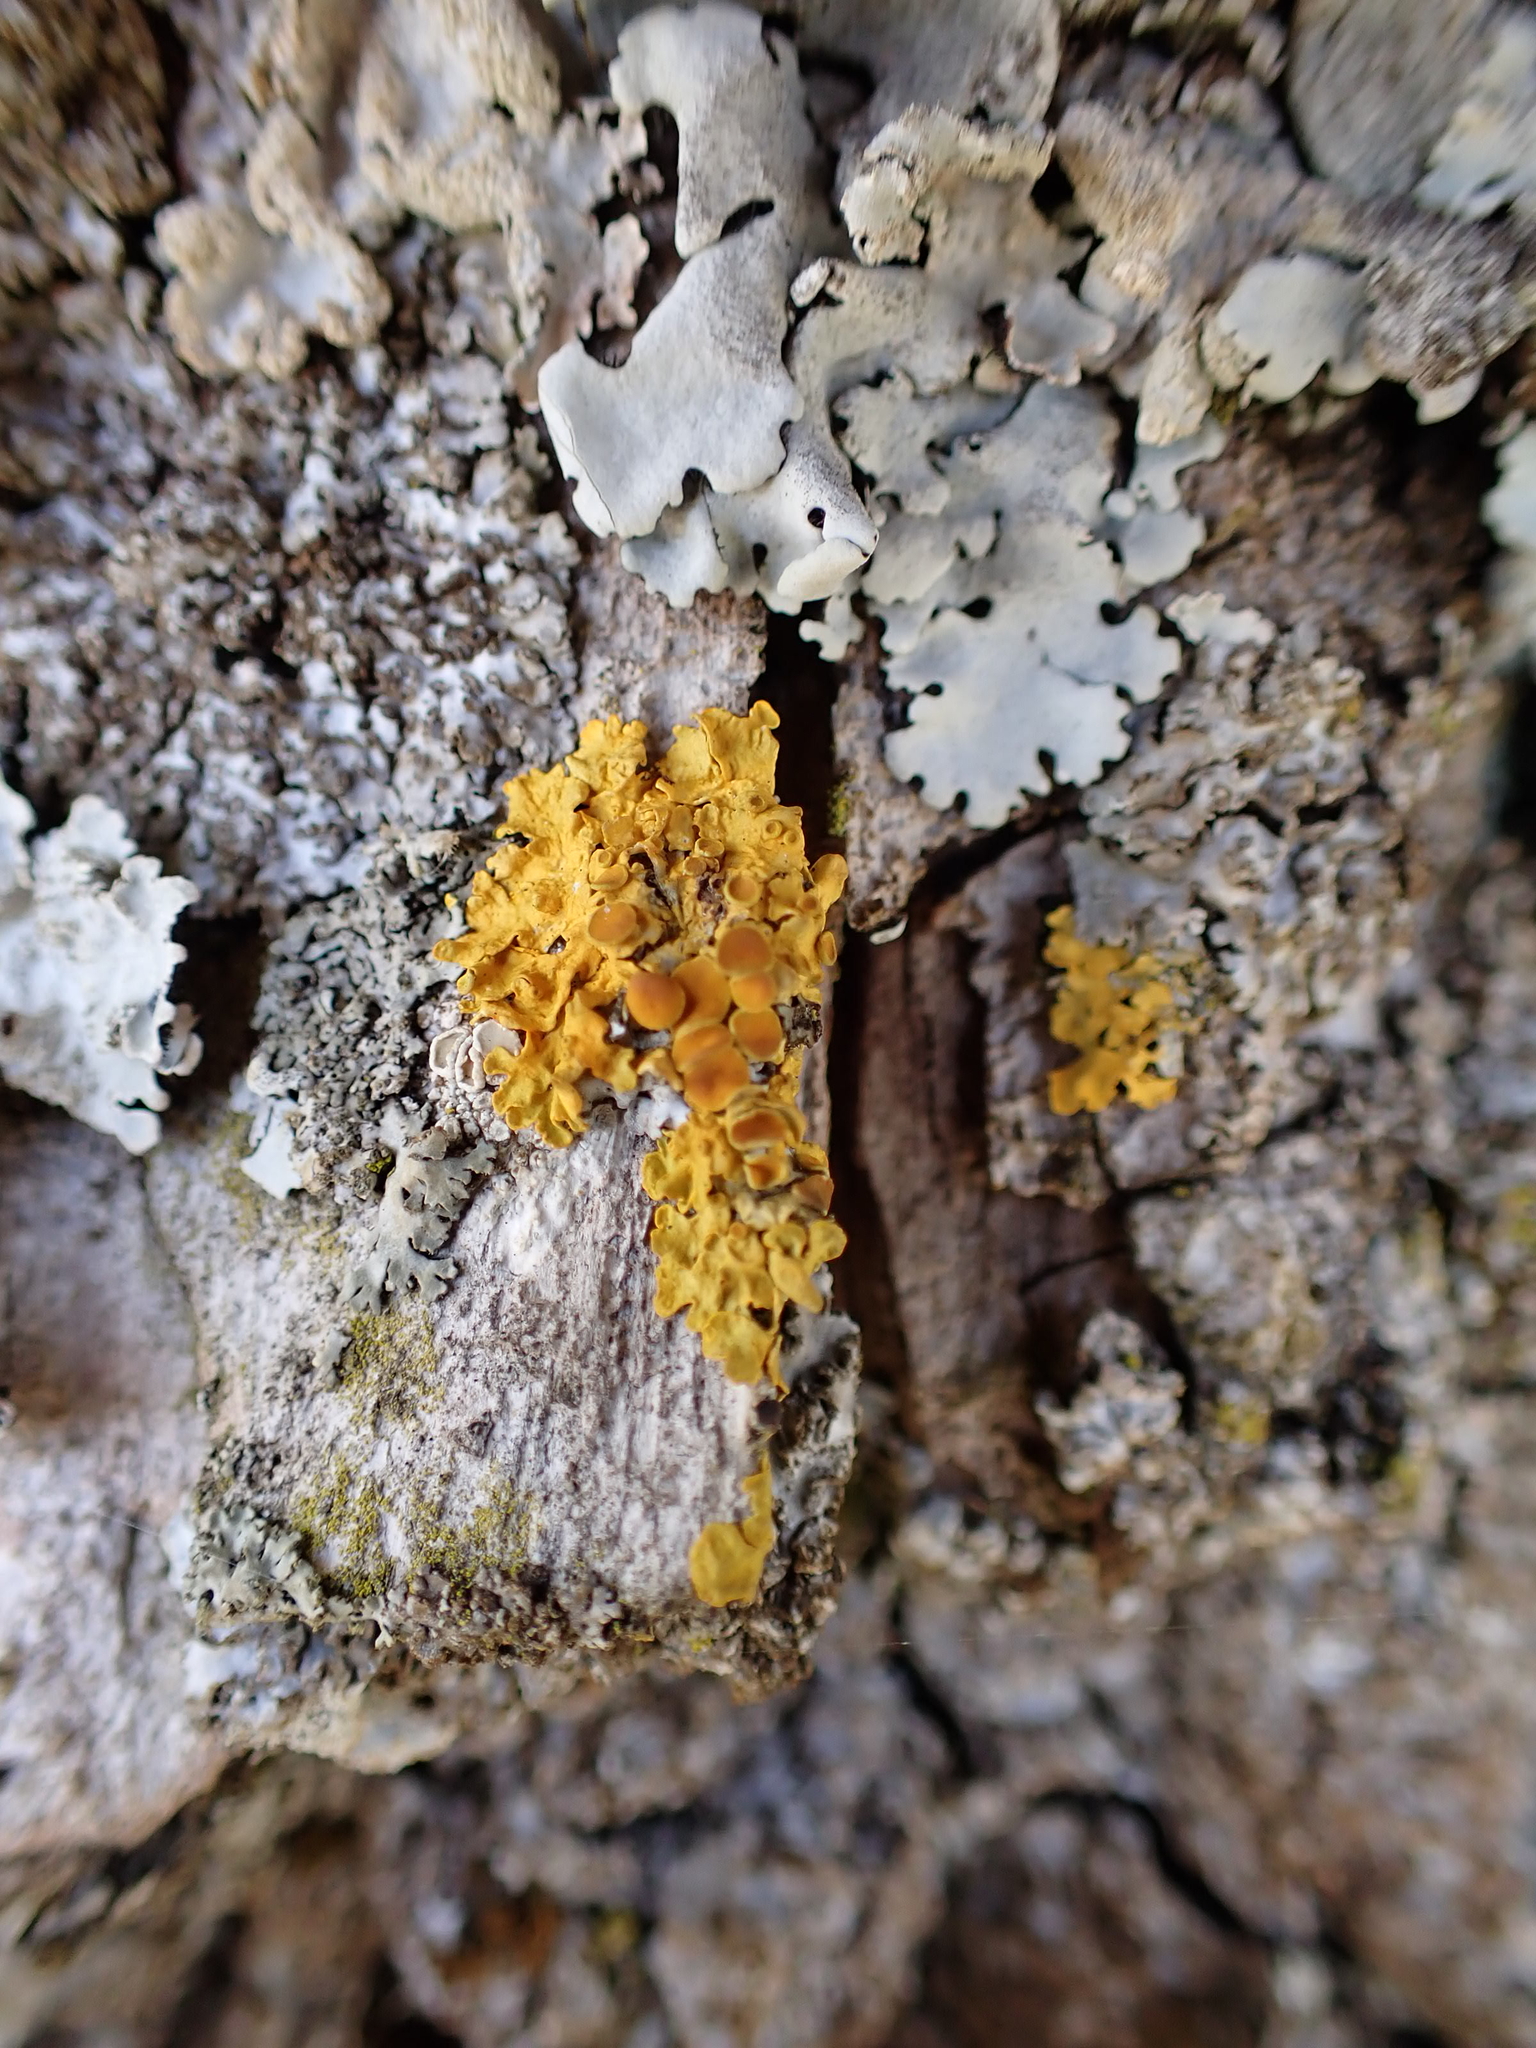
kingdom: Fungi
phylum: Ascomycota
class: Lecanoromycetes
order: Teloschistales
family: Teloschistaceae
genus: Xanthoria
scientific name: Xanthoria parietina
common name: Common orange lichen
